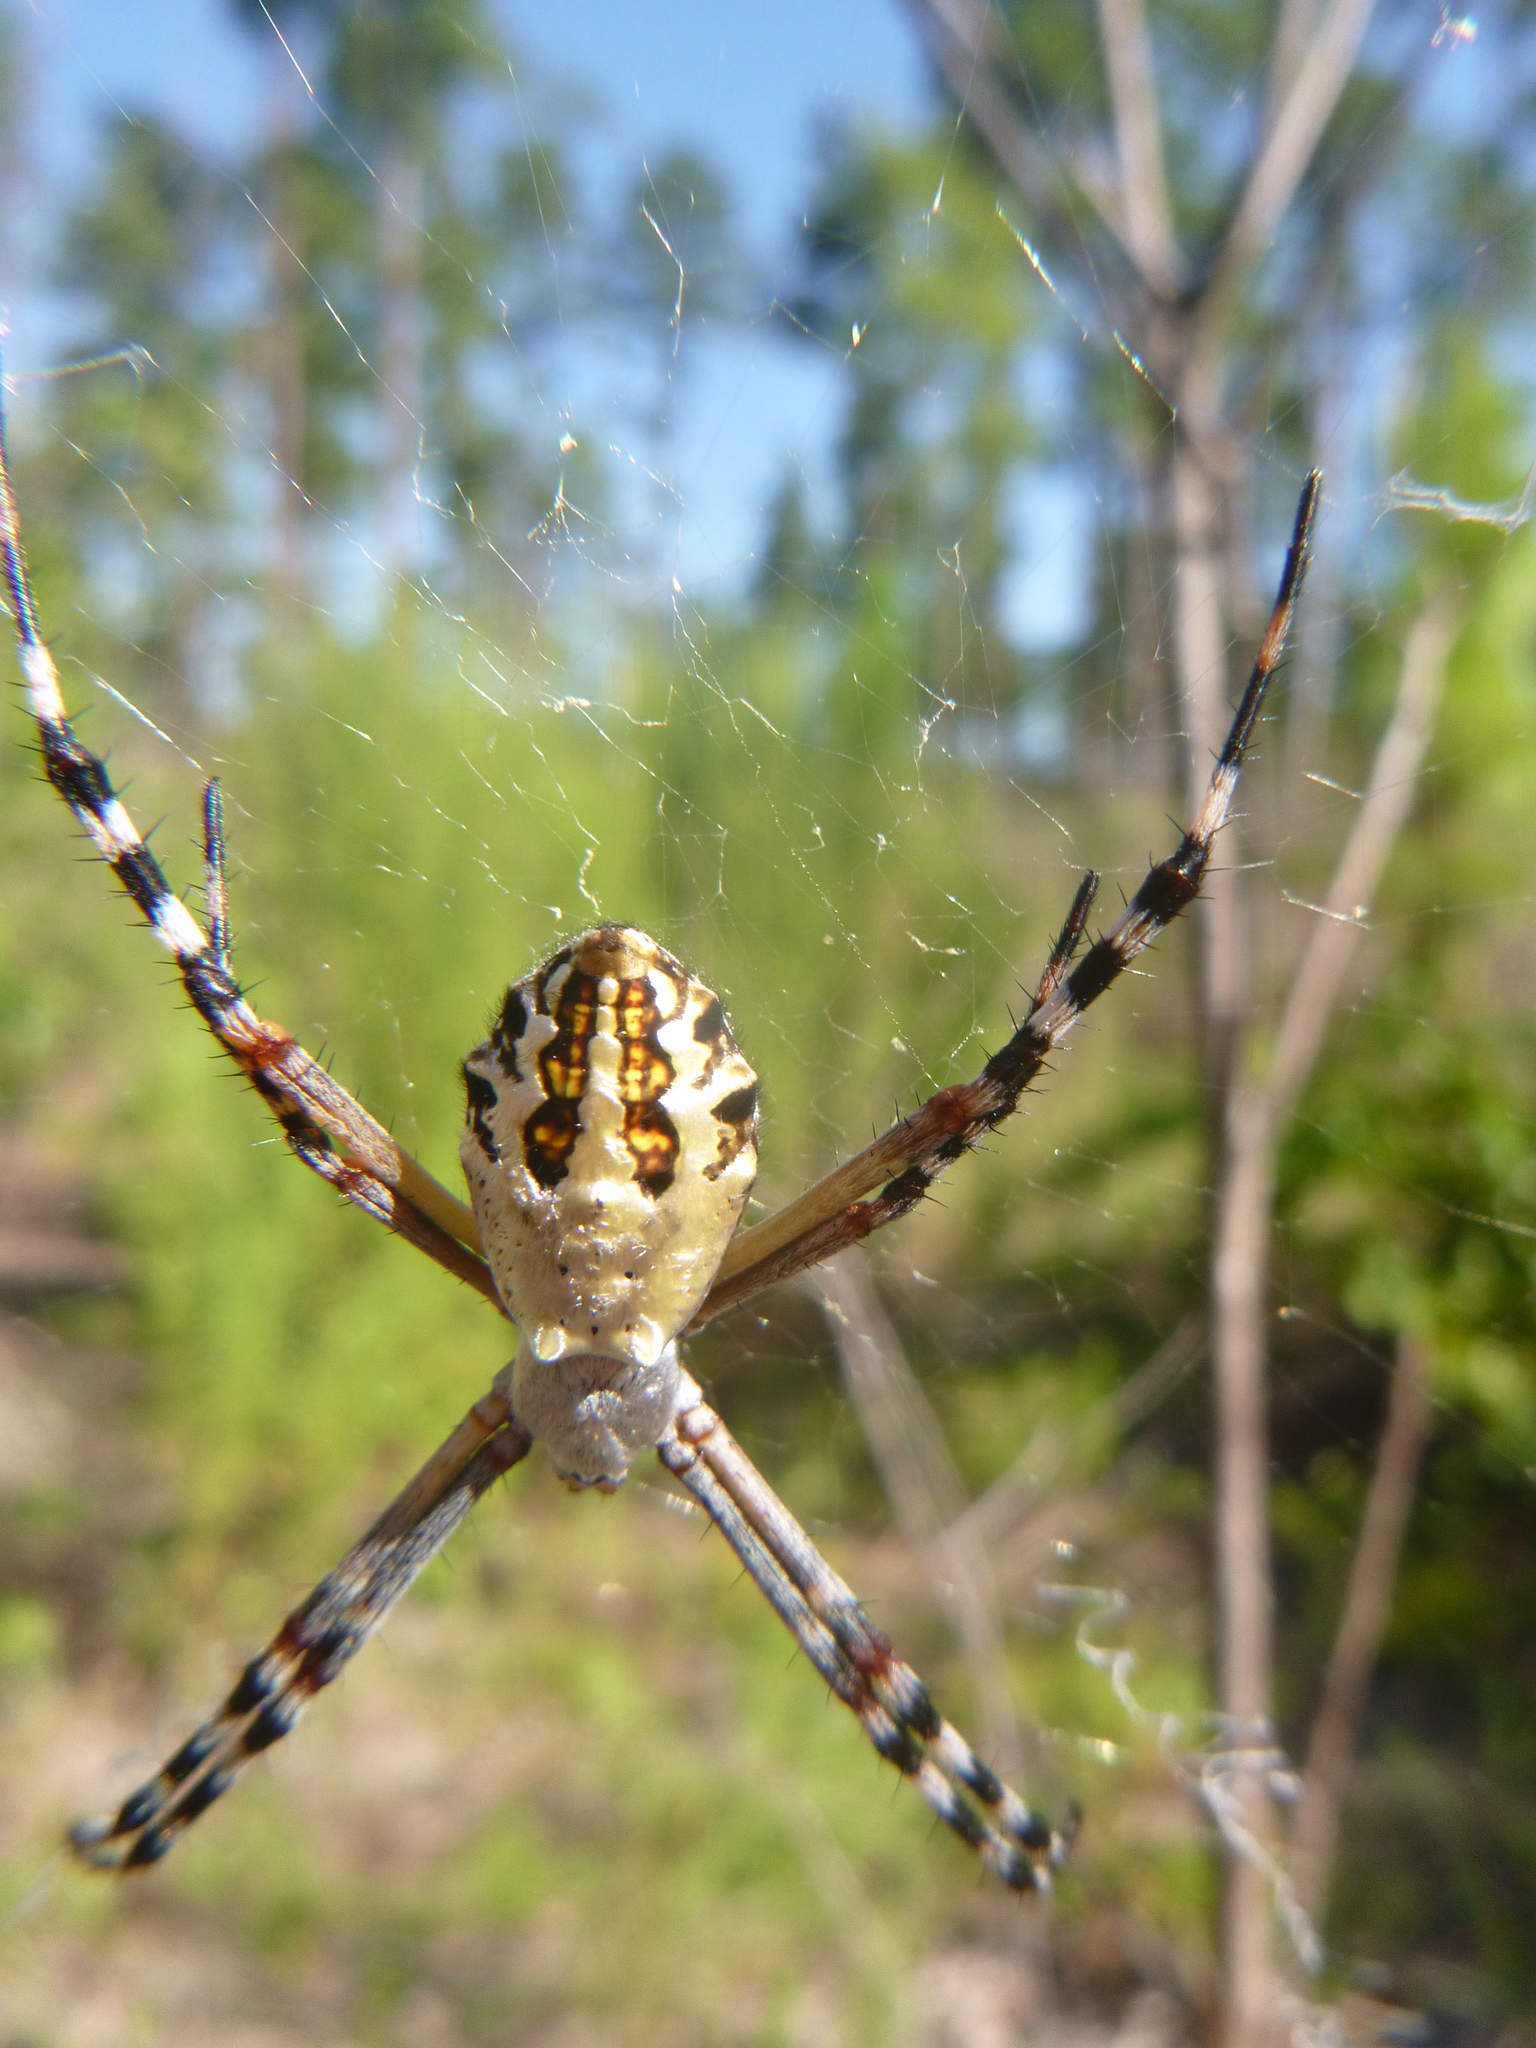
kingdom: Animalia
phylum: Arthropoda
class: Arachnida
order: Araneae
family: Araneidae
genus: Argiope
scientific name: Argiope florida
